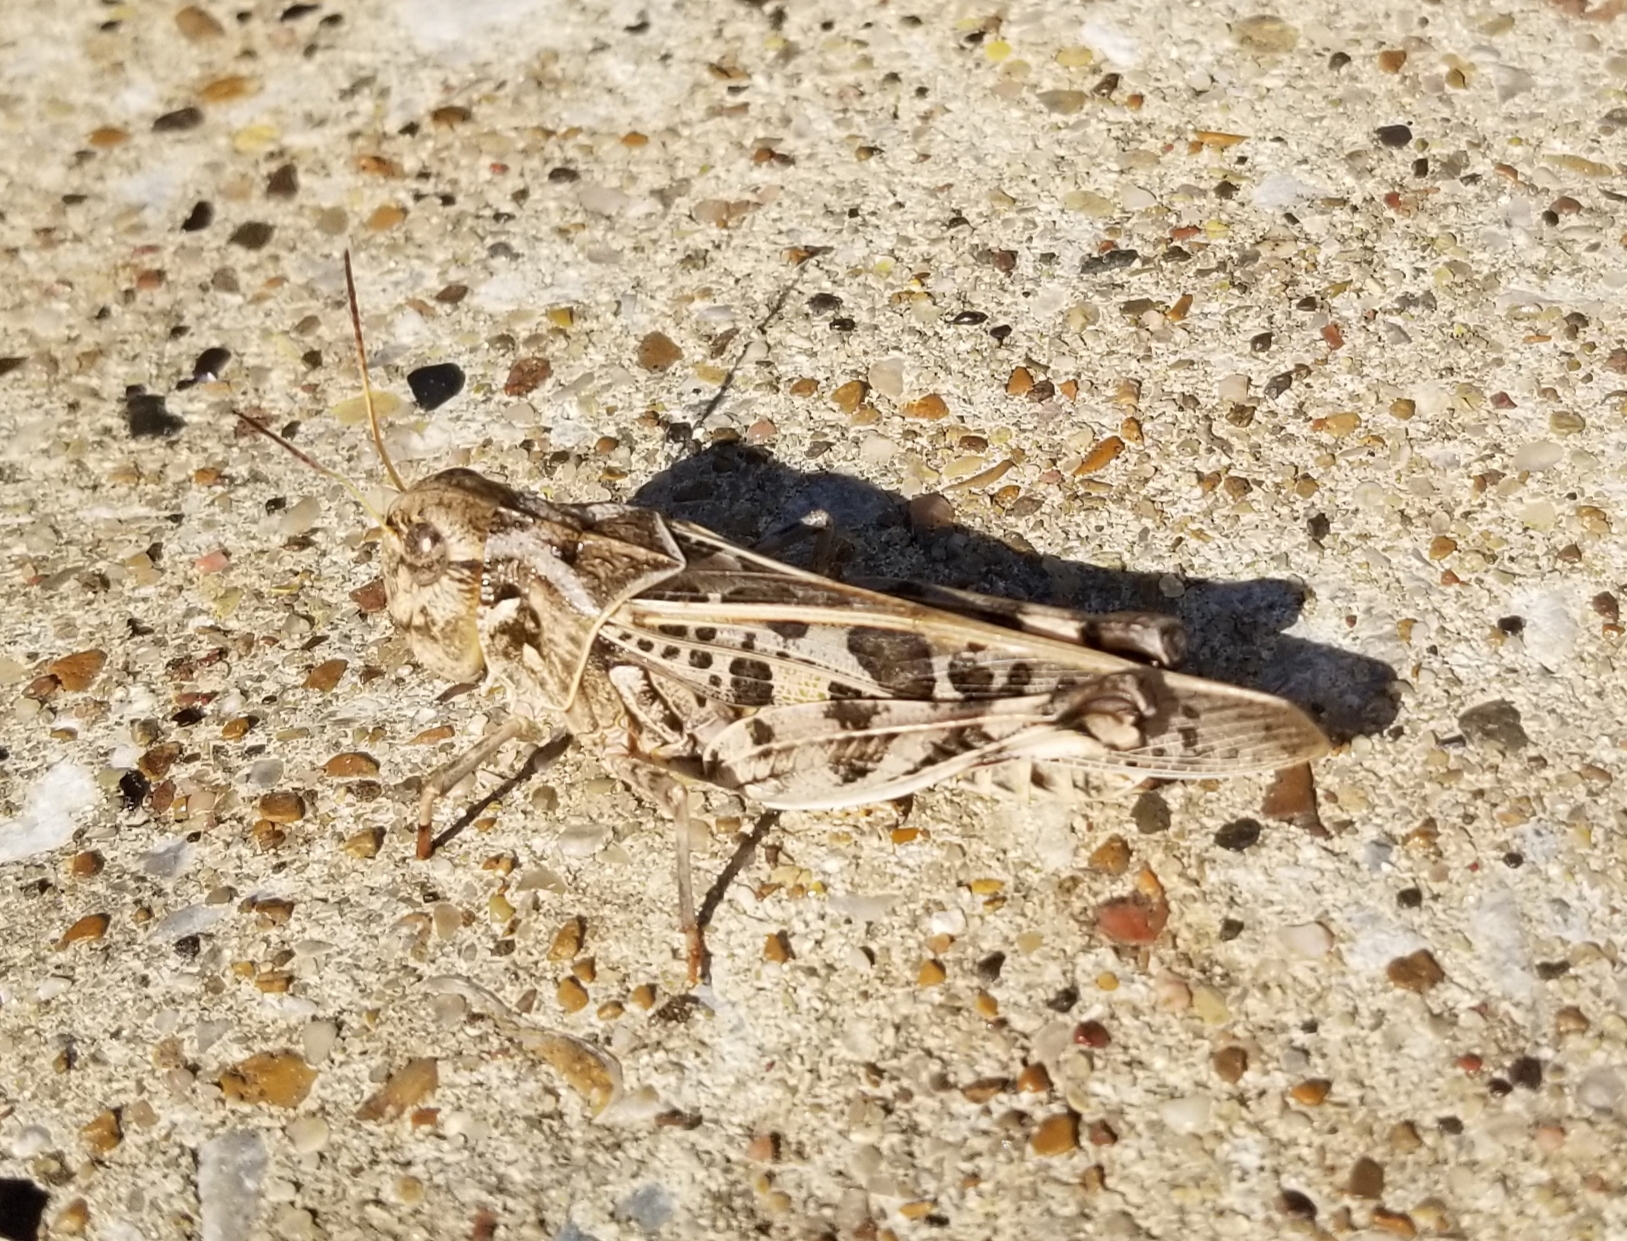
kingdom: Animalia
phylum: Arthropoda
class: Insecta
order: Orthoptera
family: Acrididae
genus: Hippiscus
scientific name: Hippiscus ocelote
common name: Wrinkled grasshopper
